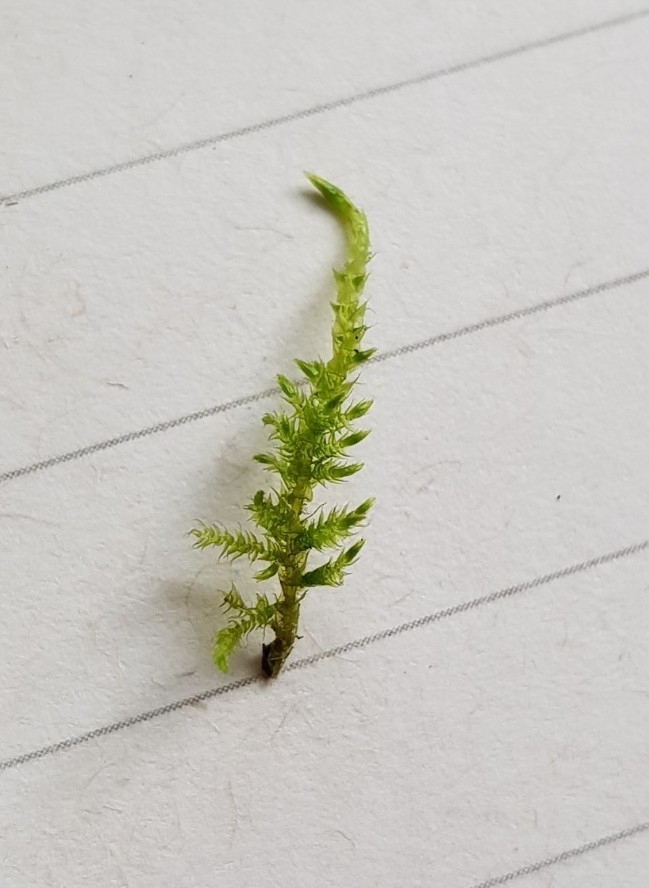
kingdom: Plantae
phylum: Bryophyta
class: Bryopsida
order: Hypnales
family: Amblystegiaceae
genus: Cratoneuron
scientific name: Cratoneuron filicinum
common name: Fern-leaved hook moss
